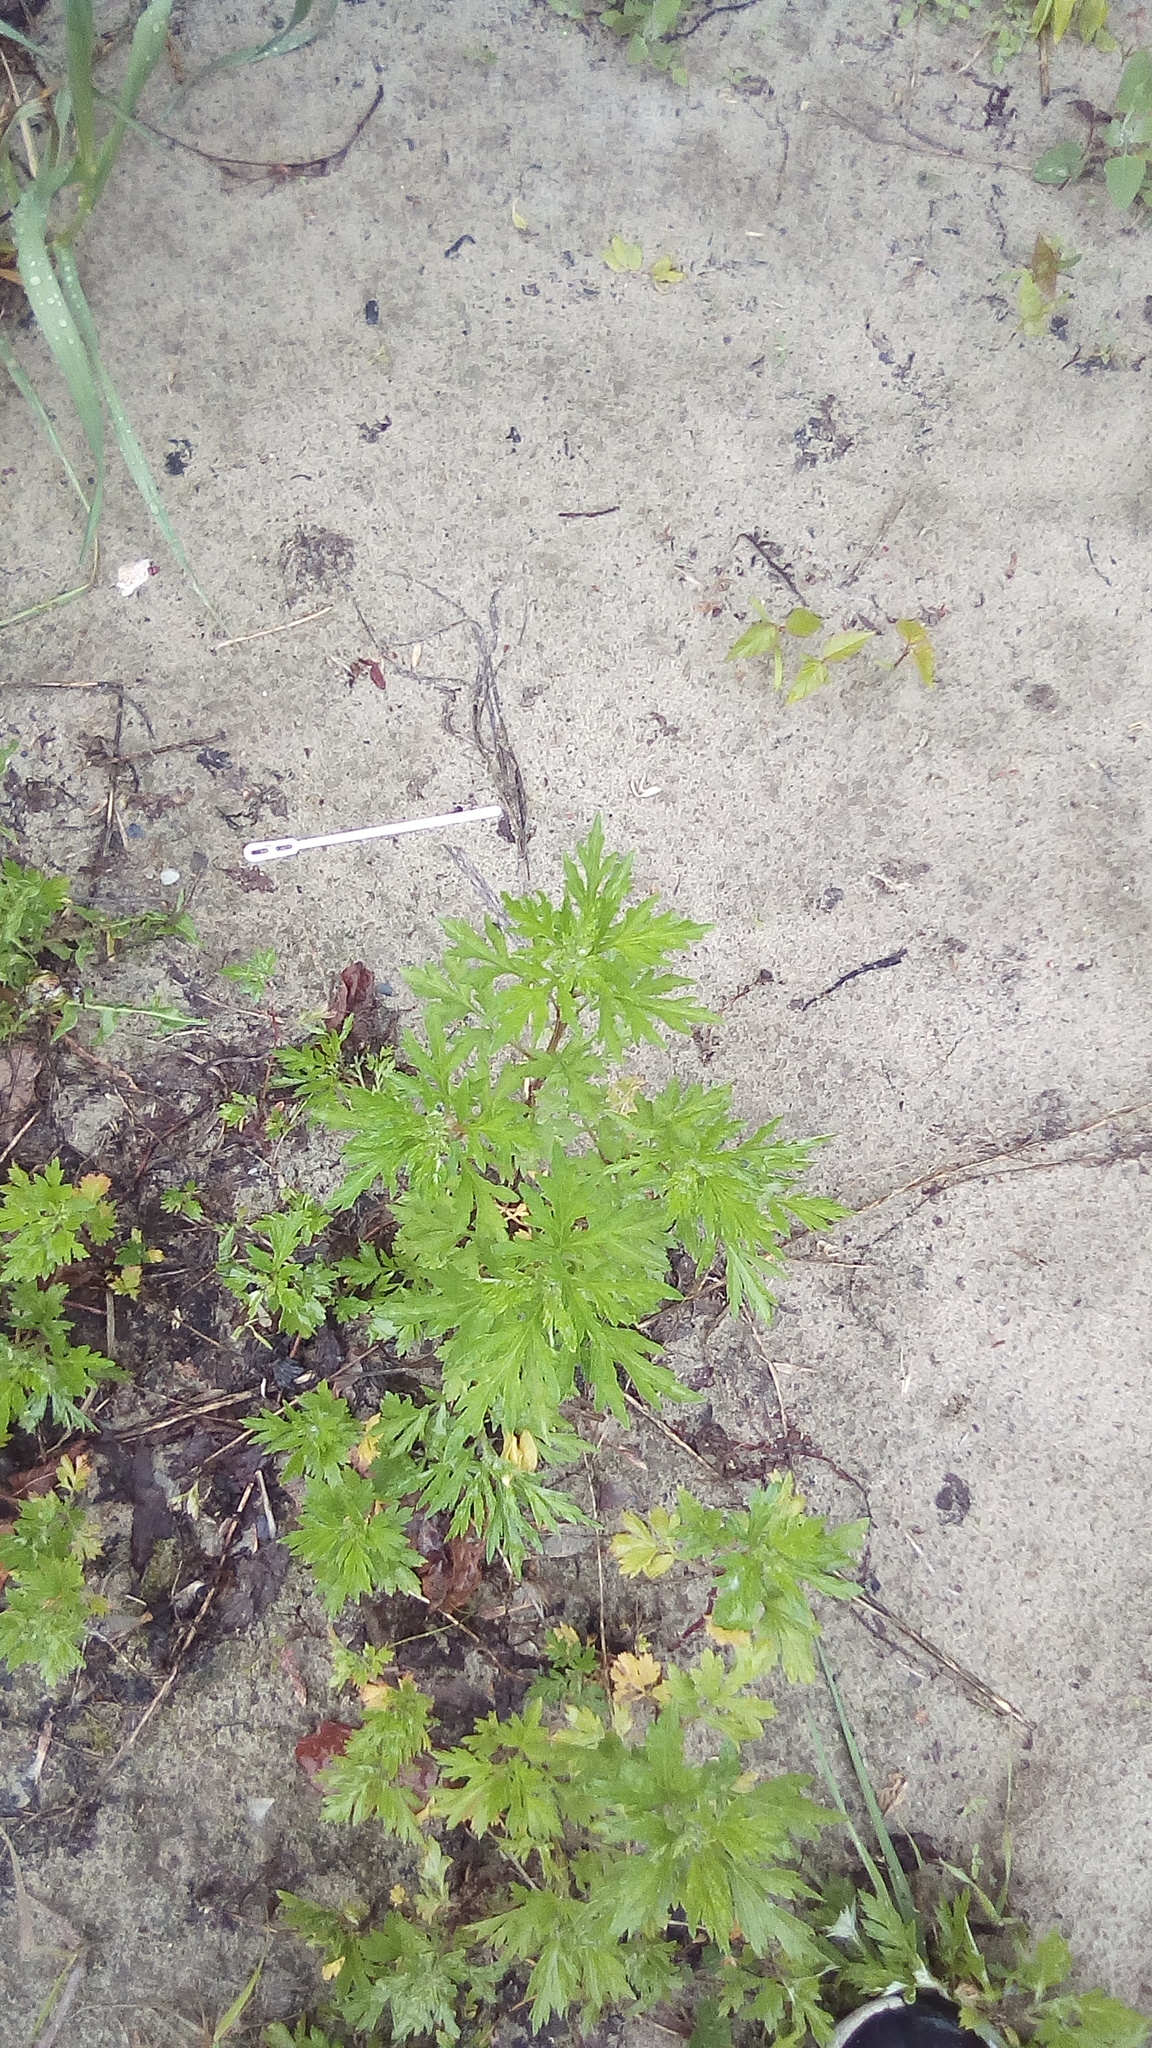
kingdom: Plantae
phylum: Tracheophyta
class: Magnoliopsida
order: Asterales
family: Asteraceae
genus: Artemisia
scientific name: Artemisia vulgaris
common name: Mugwort
